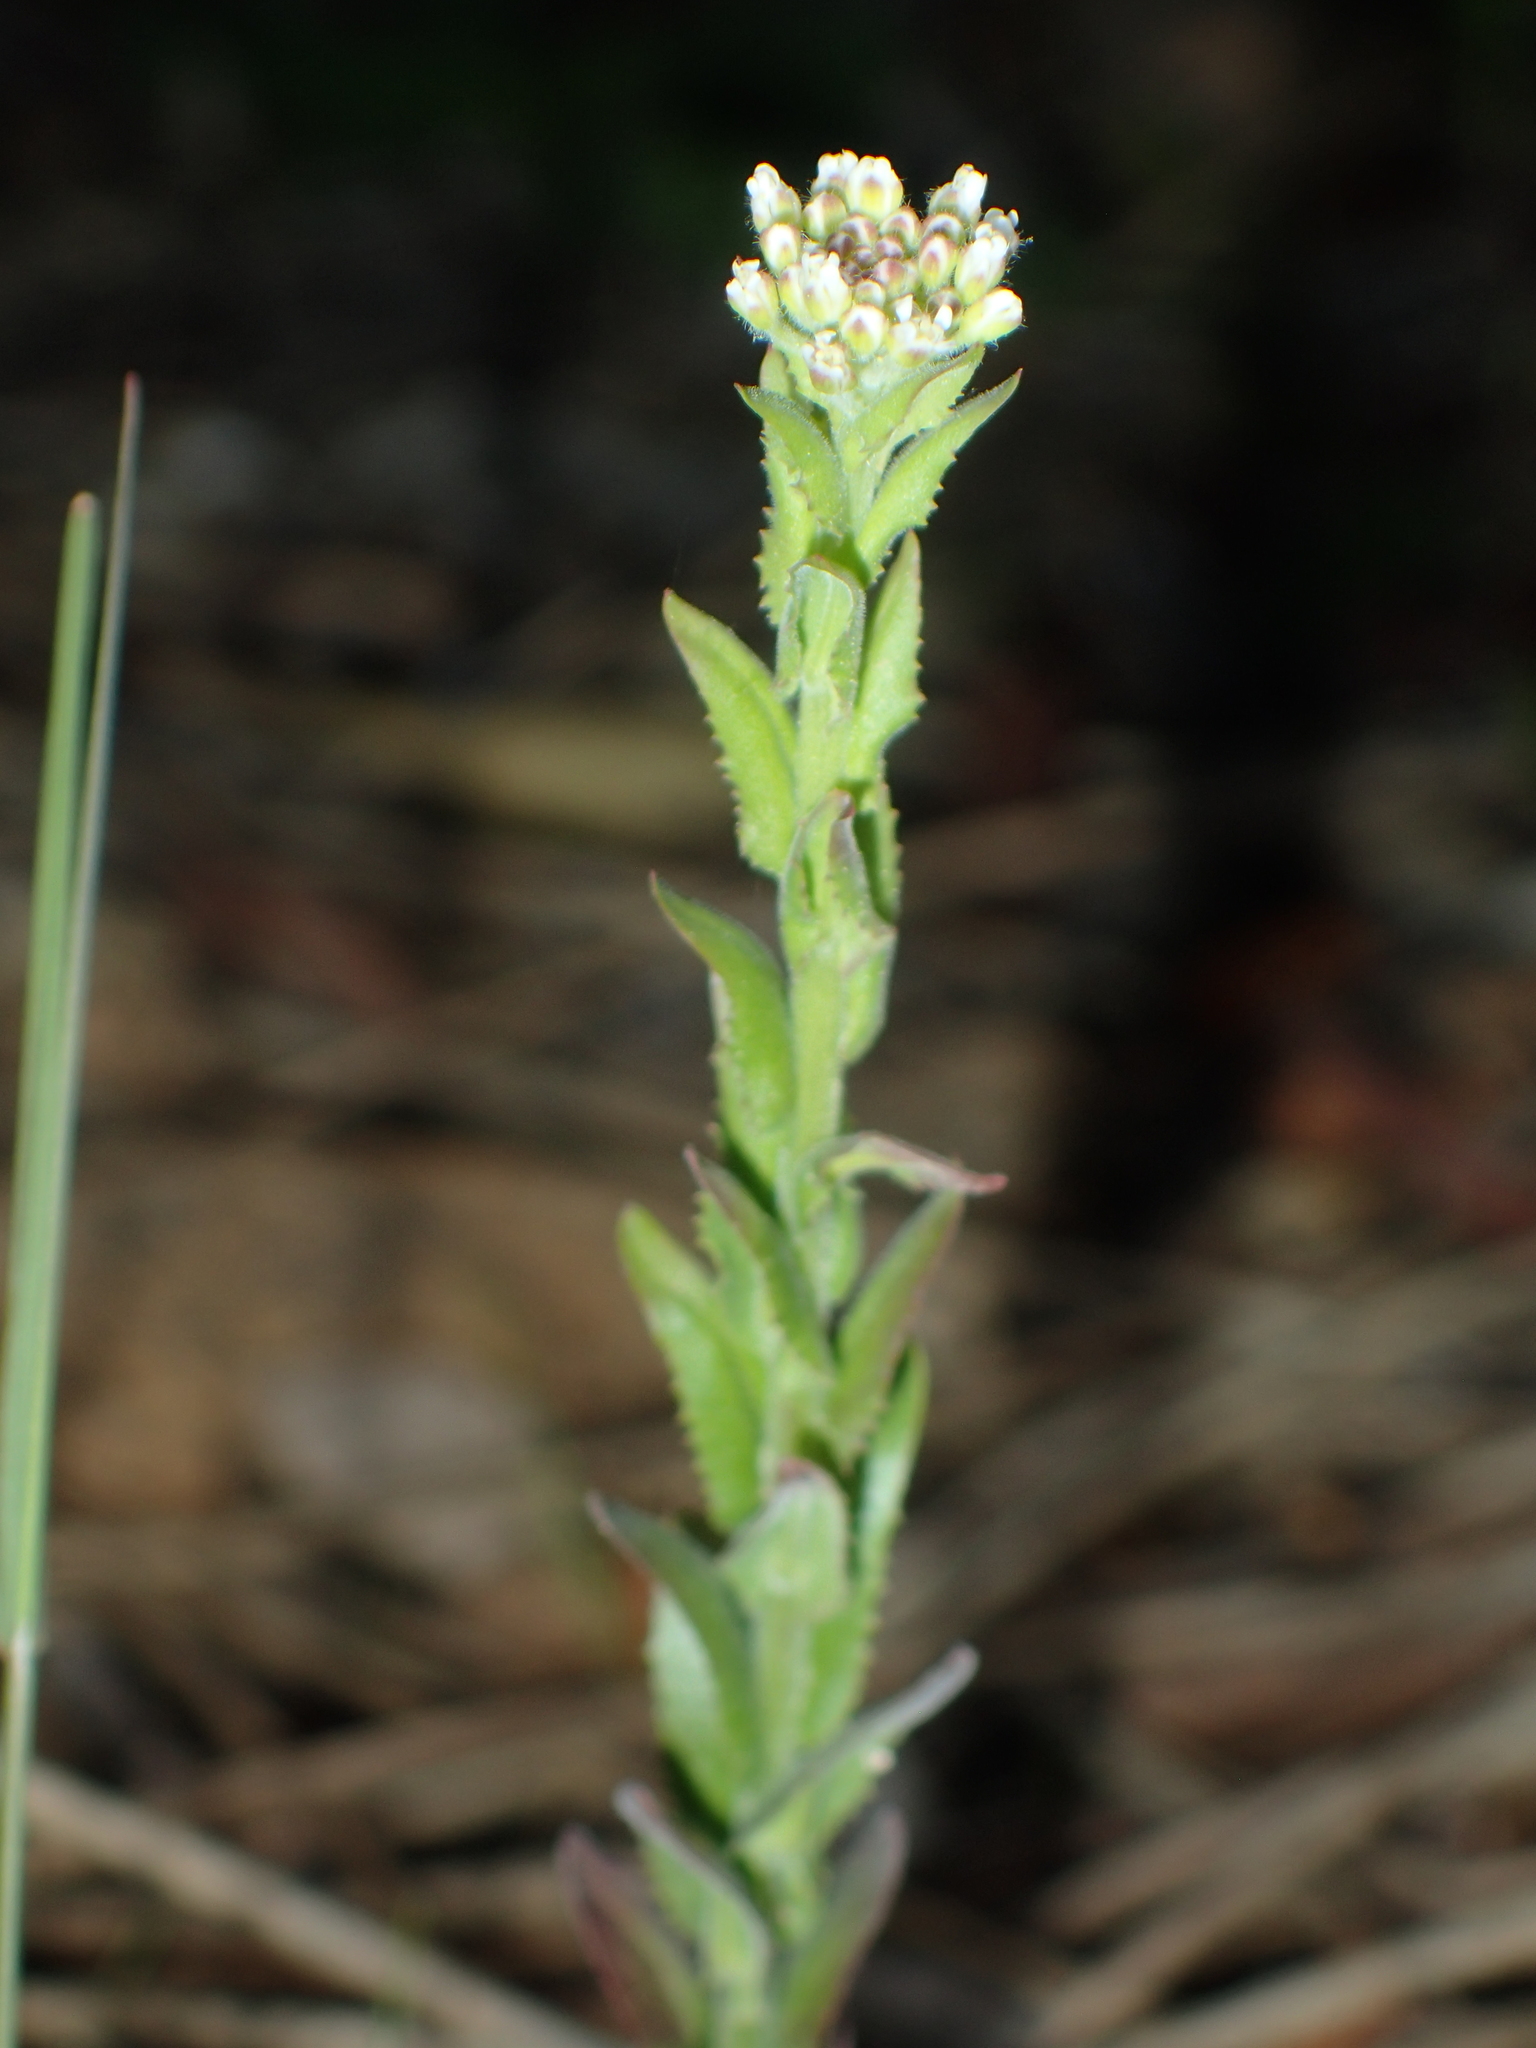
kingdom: Plantae
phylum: Tracheophyta
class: Magnoliopsida
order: Brassicales
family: Brassicaceae
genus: Lepidium
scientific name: Lepidium campestre
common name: Field pepperwort
